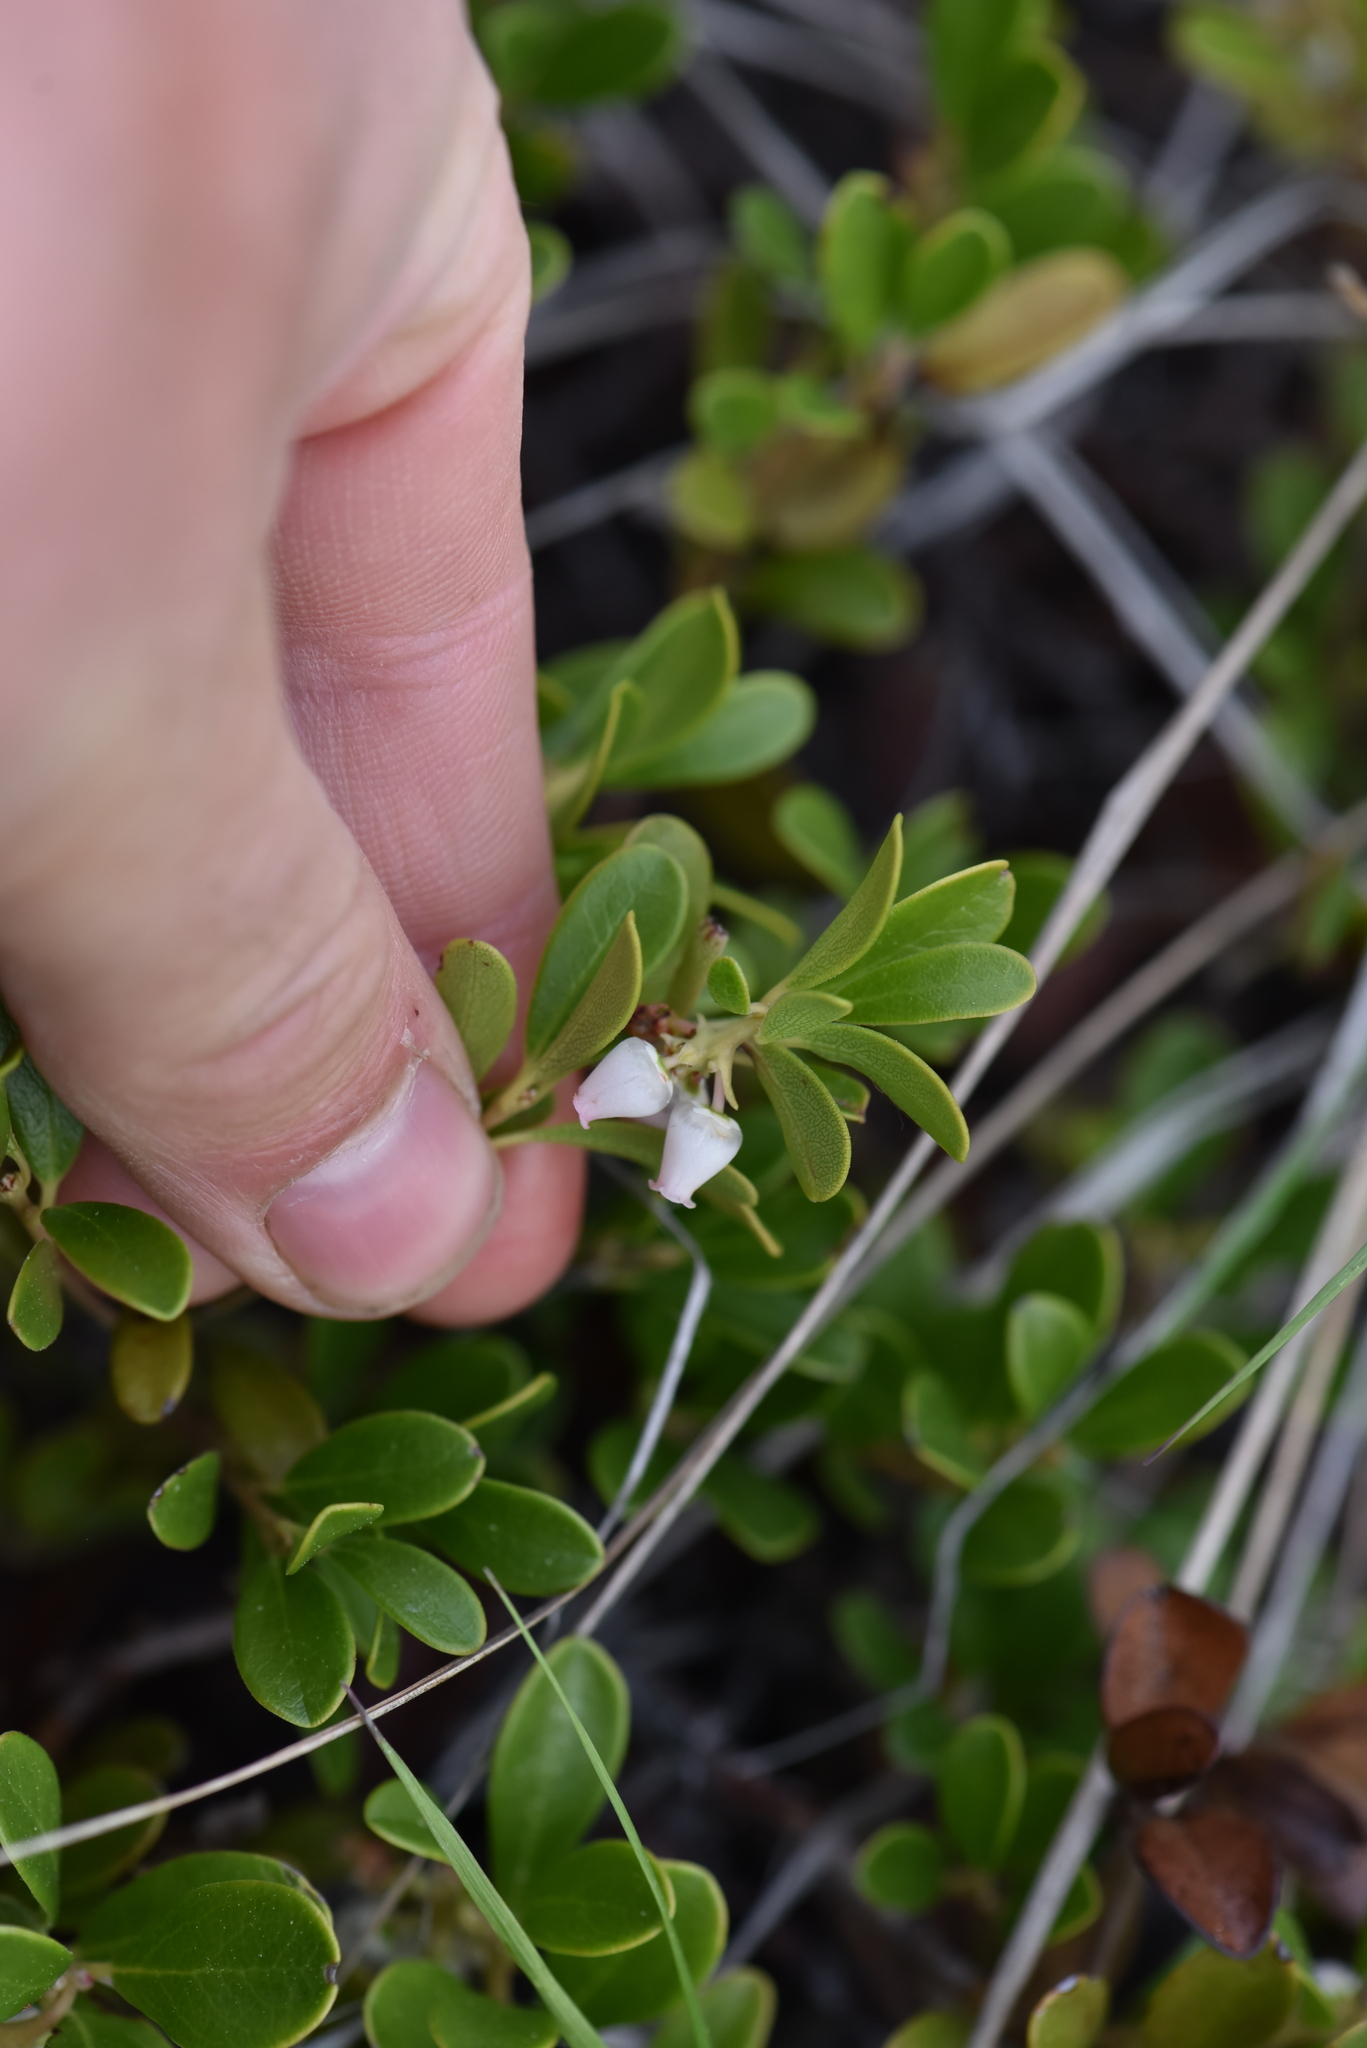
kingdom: Plantae
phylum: Tracheophyta
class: Magnoliopsida
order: Ericales
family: Ericaceae
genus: Arctostaphylos
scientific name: Arctostaphylos uva-ursi
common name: Bearberry
